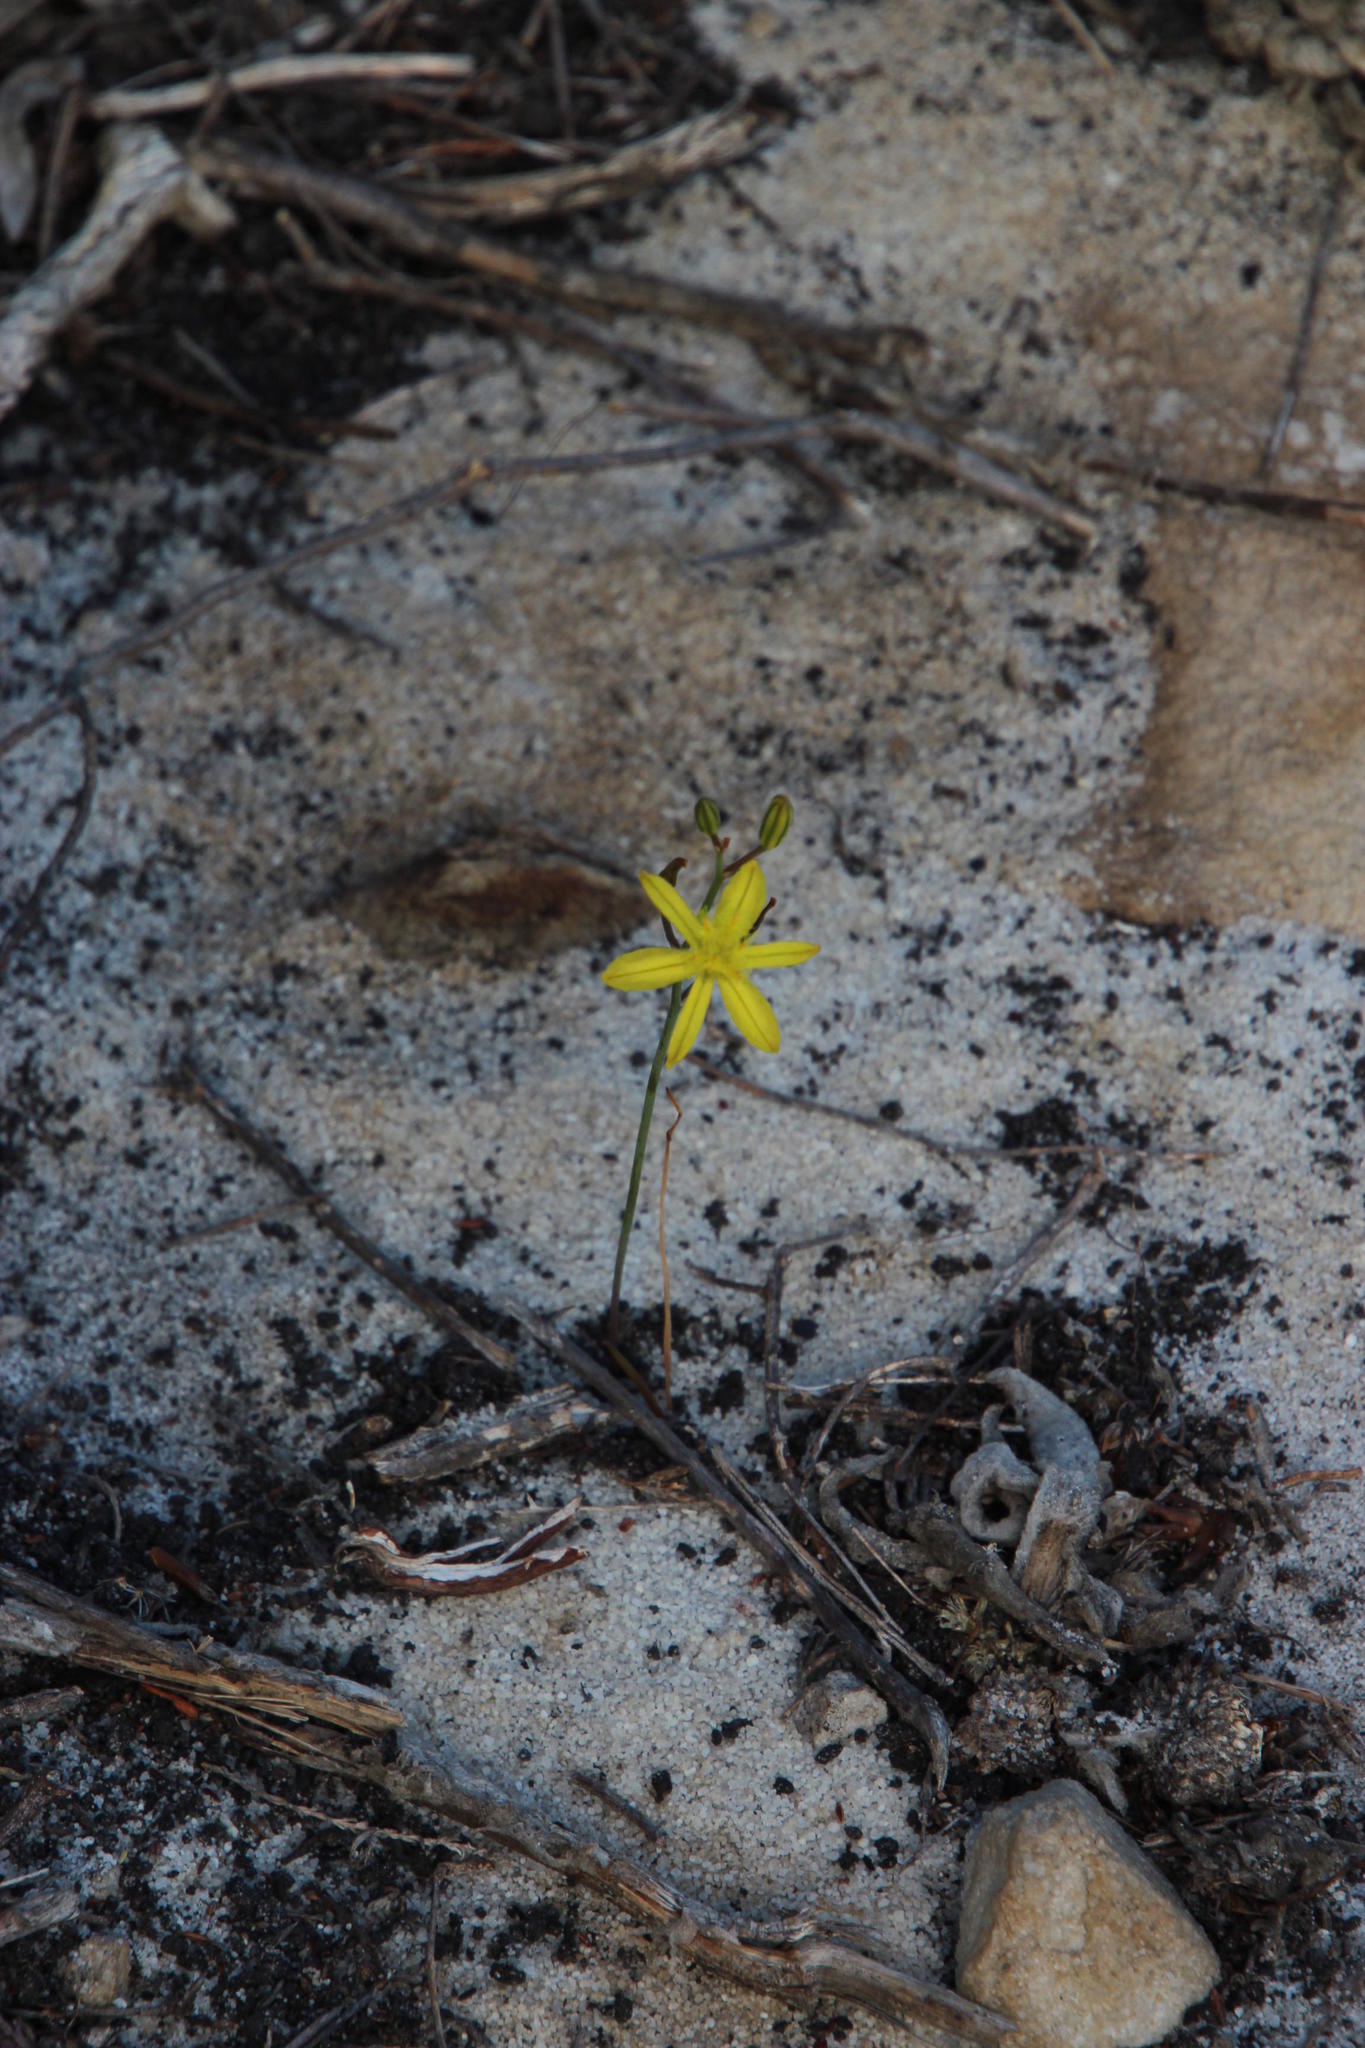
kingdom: Plantae
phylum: Tracheophyta
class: Liliopsida
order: Asparagales
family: Asphodelaceae
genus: Bulbine
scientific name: Bulbine favosa
